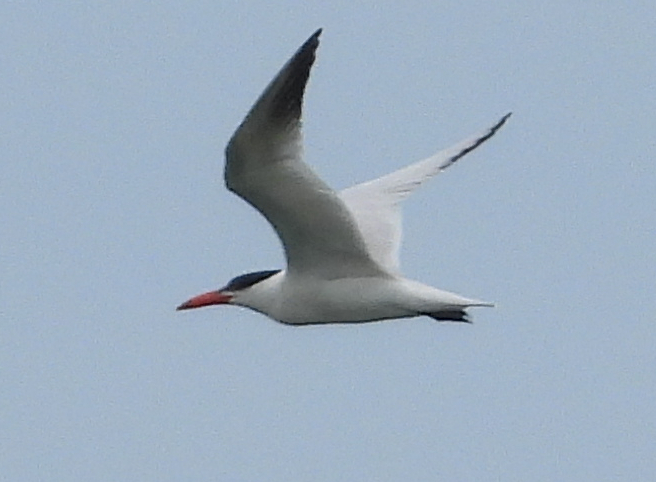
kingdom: Animalia
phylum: Chordata
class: Aves
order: Charadriiformes
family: Laridae
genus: Hydroprogne
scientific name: Hydroprogne caspia
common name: Caspian tern
